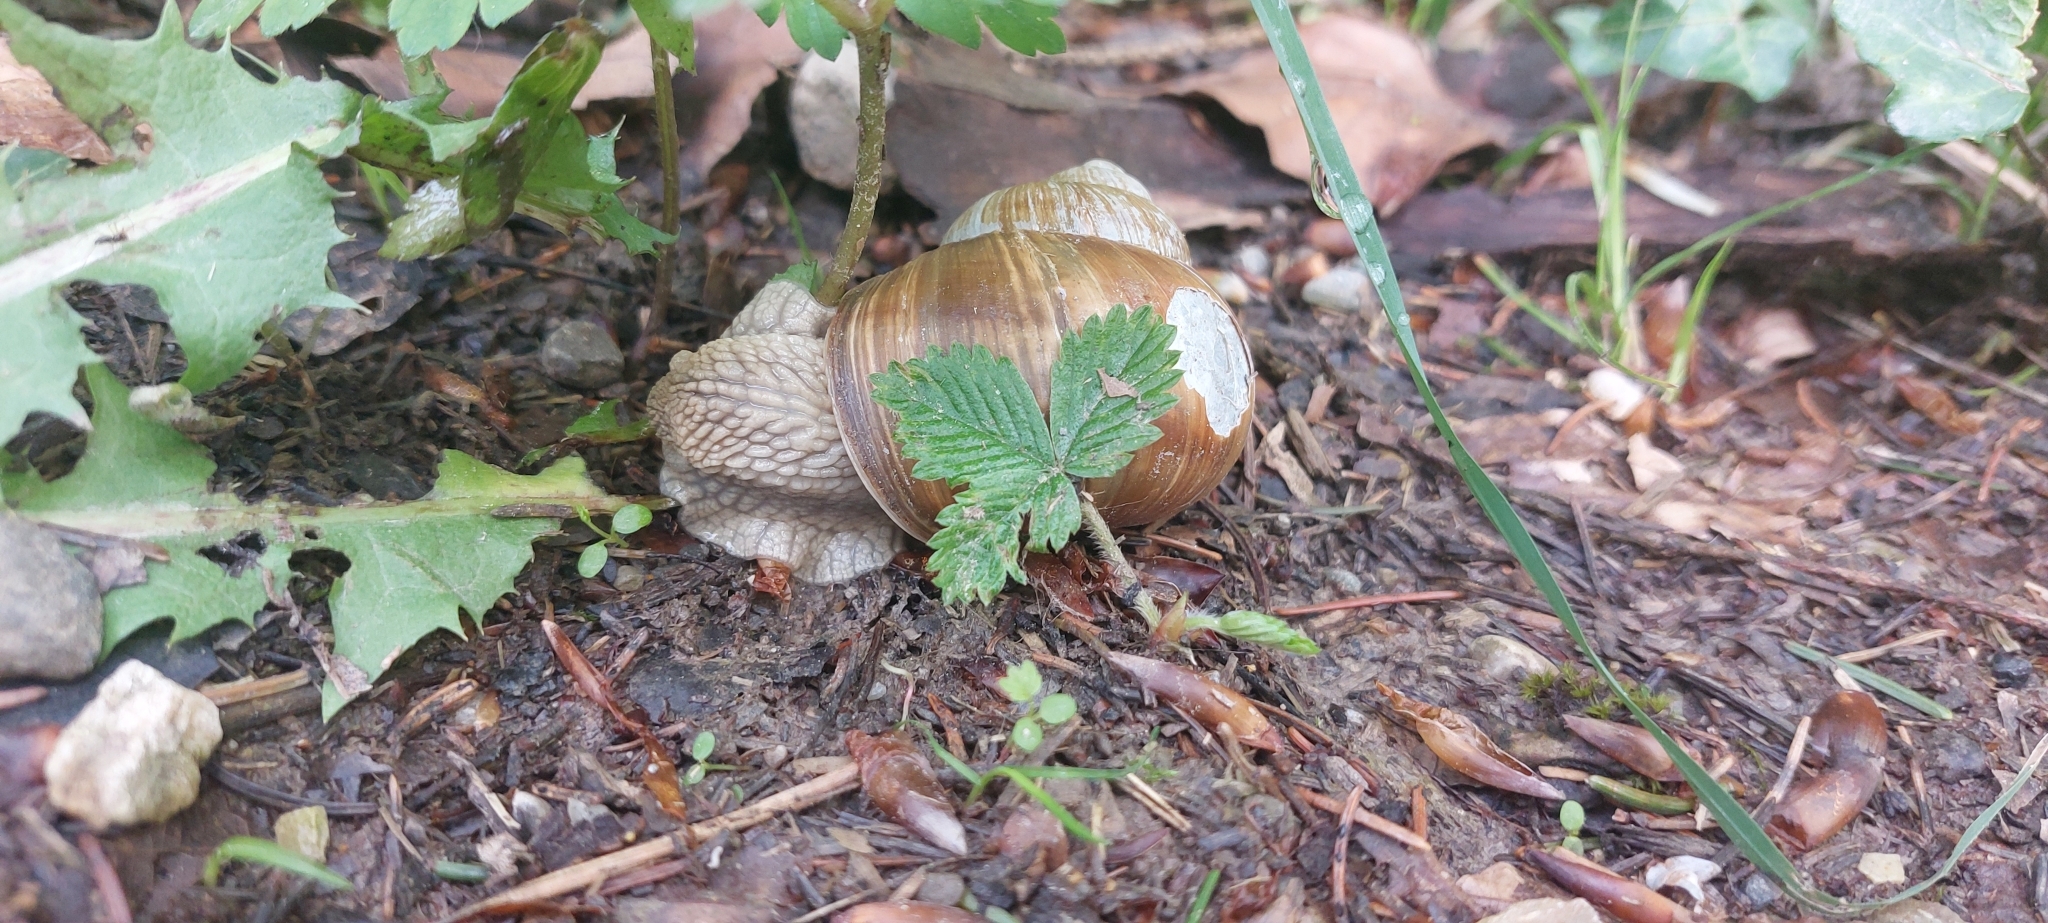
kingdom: Animalia
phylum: Mollusca
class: Gastropoda
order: Stylommatophora
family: Helicidae
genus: Helix
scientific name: Helix pomatia
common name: Roman snail
